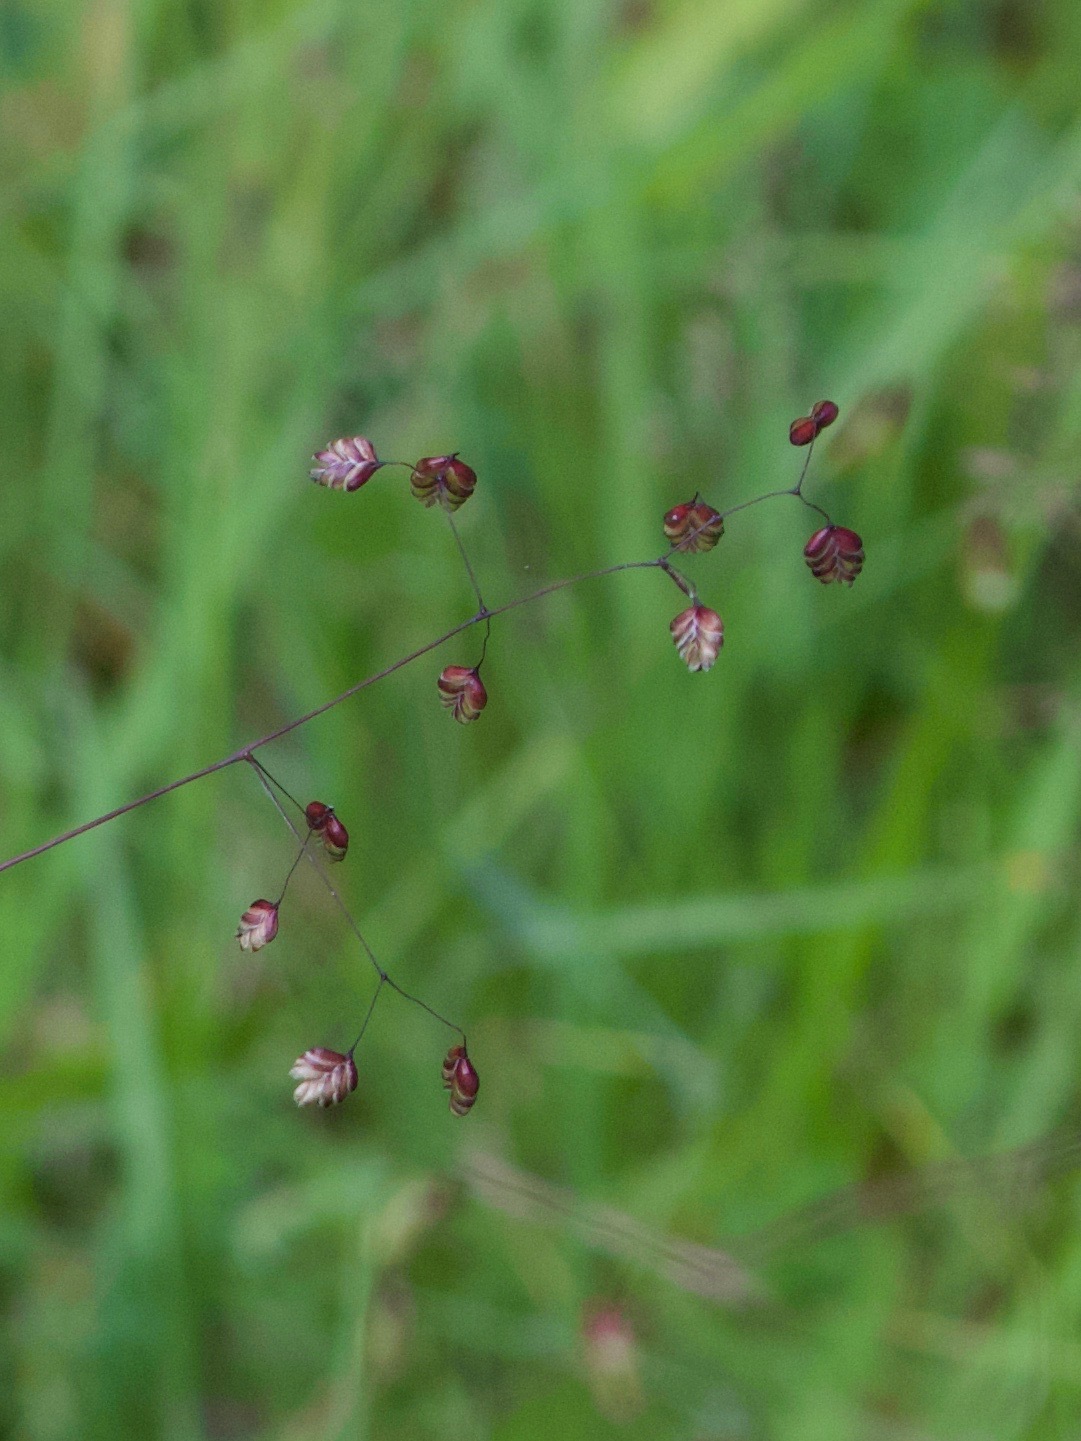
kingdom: Plantae
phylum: Tracheophyta
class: Liliopsida
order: Poales
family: Poaceae
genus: Briza
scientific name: Briza media
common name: Quaking grass
